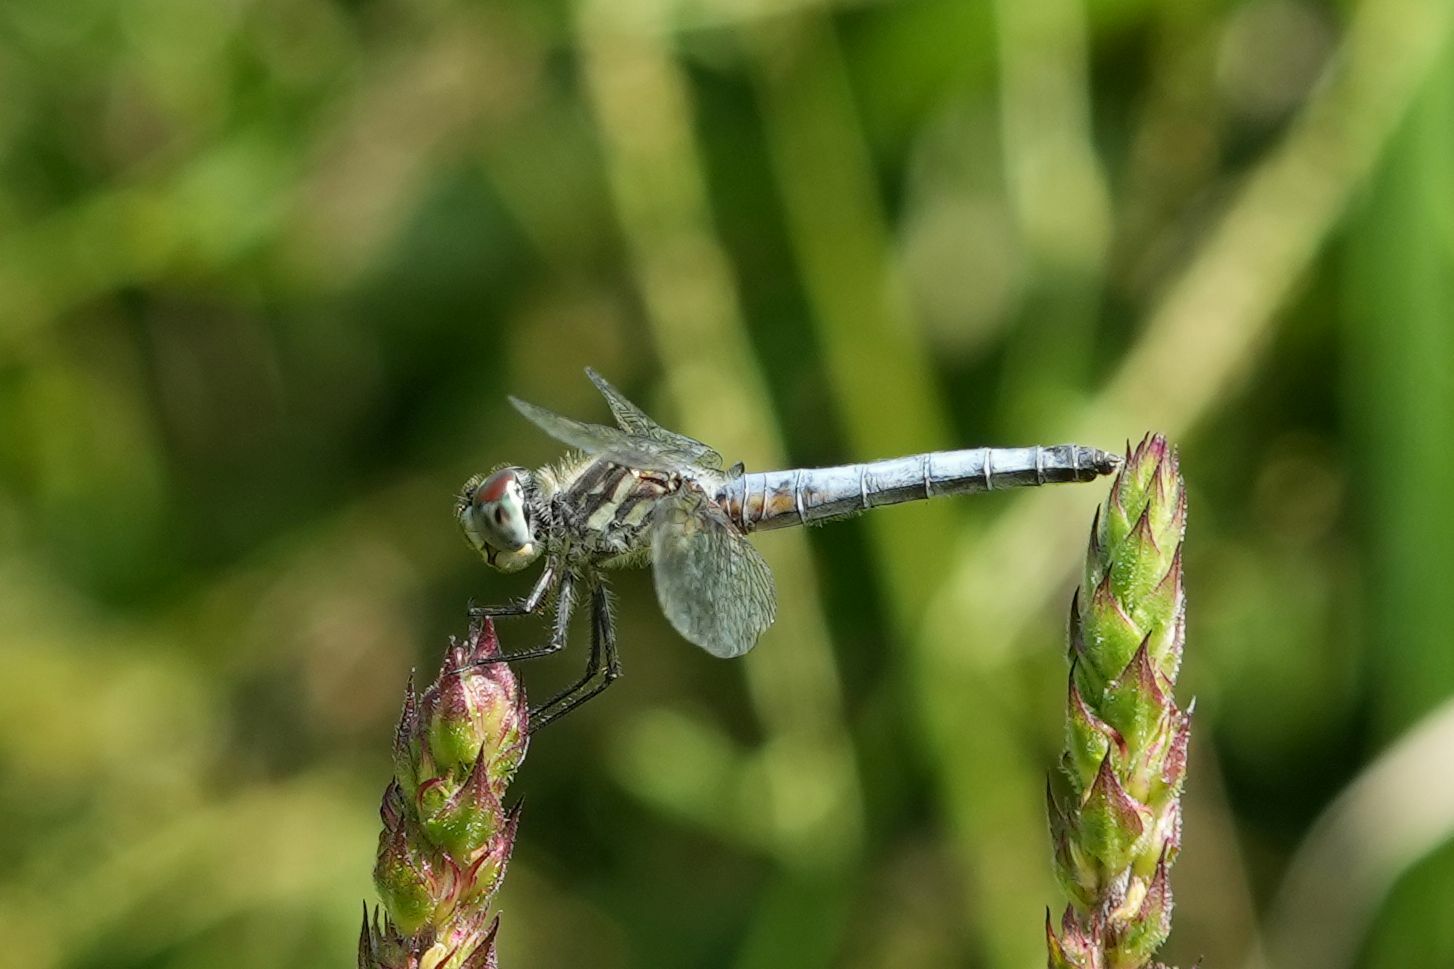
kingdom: Animalia
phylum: Arthropoda
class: Insecta
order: Odonata
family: Libellulidae
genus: Pachydiplax
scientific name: Pachydiplax longipennis
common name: Blue dasher
